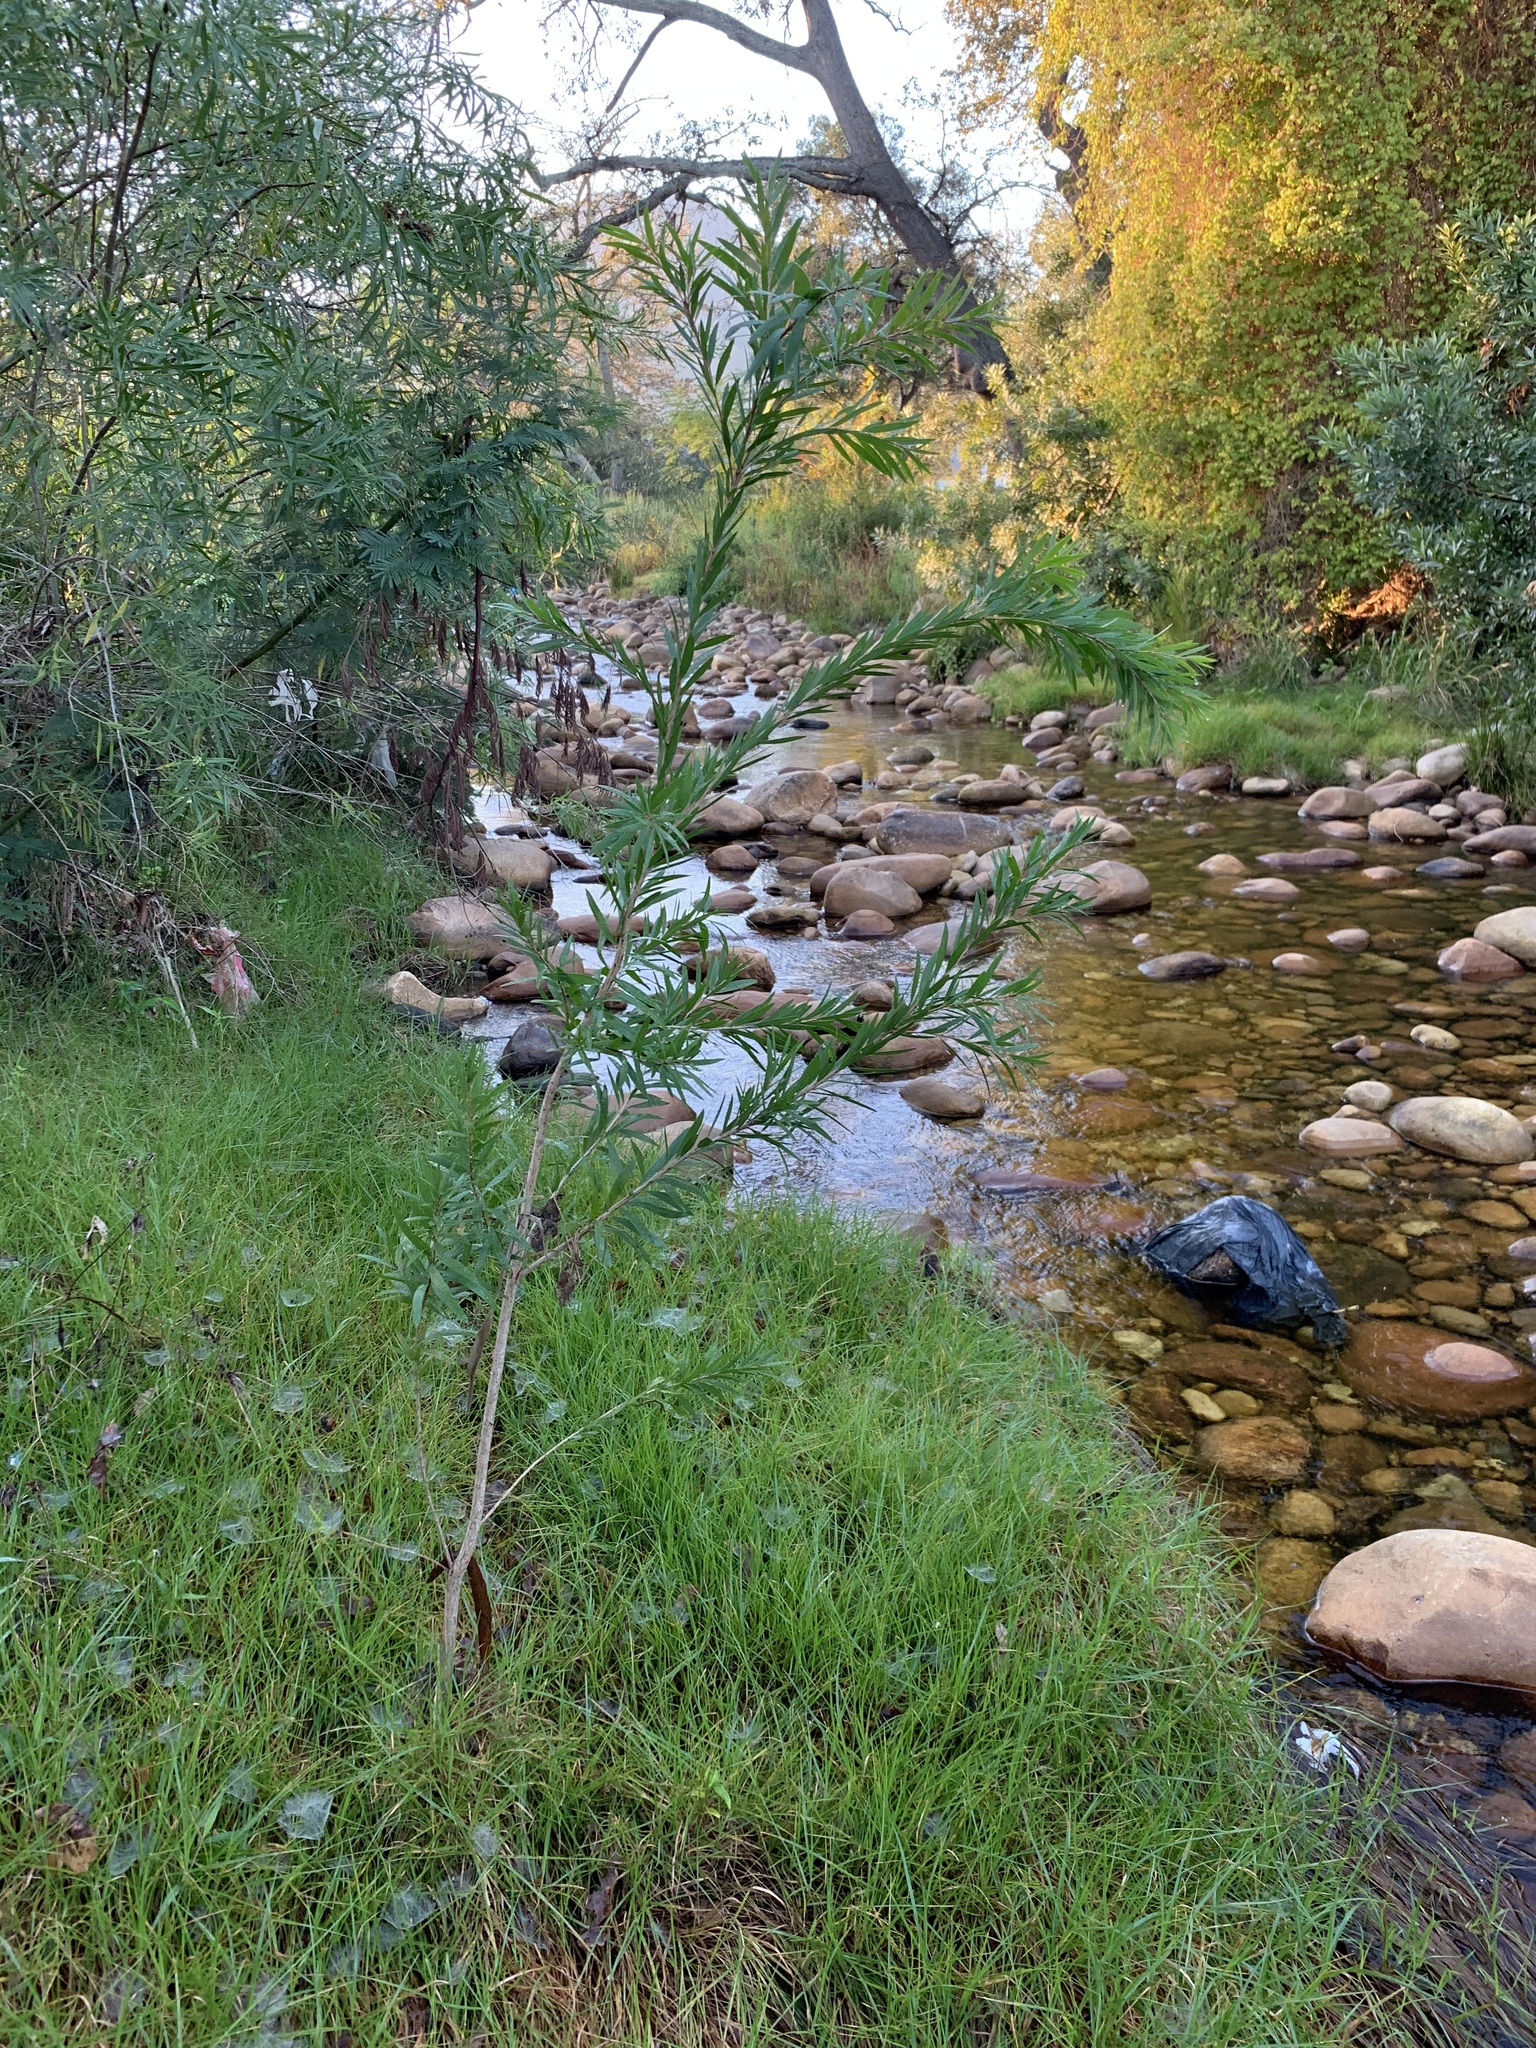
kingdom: Plantae
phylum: Tracheophyta
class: Magnoliopsida
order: Myrtales
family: Myrtaceae
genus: Callistemon
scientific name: Callistemon viminalis
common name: Drooping bottlebrush
